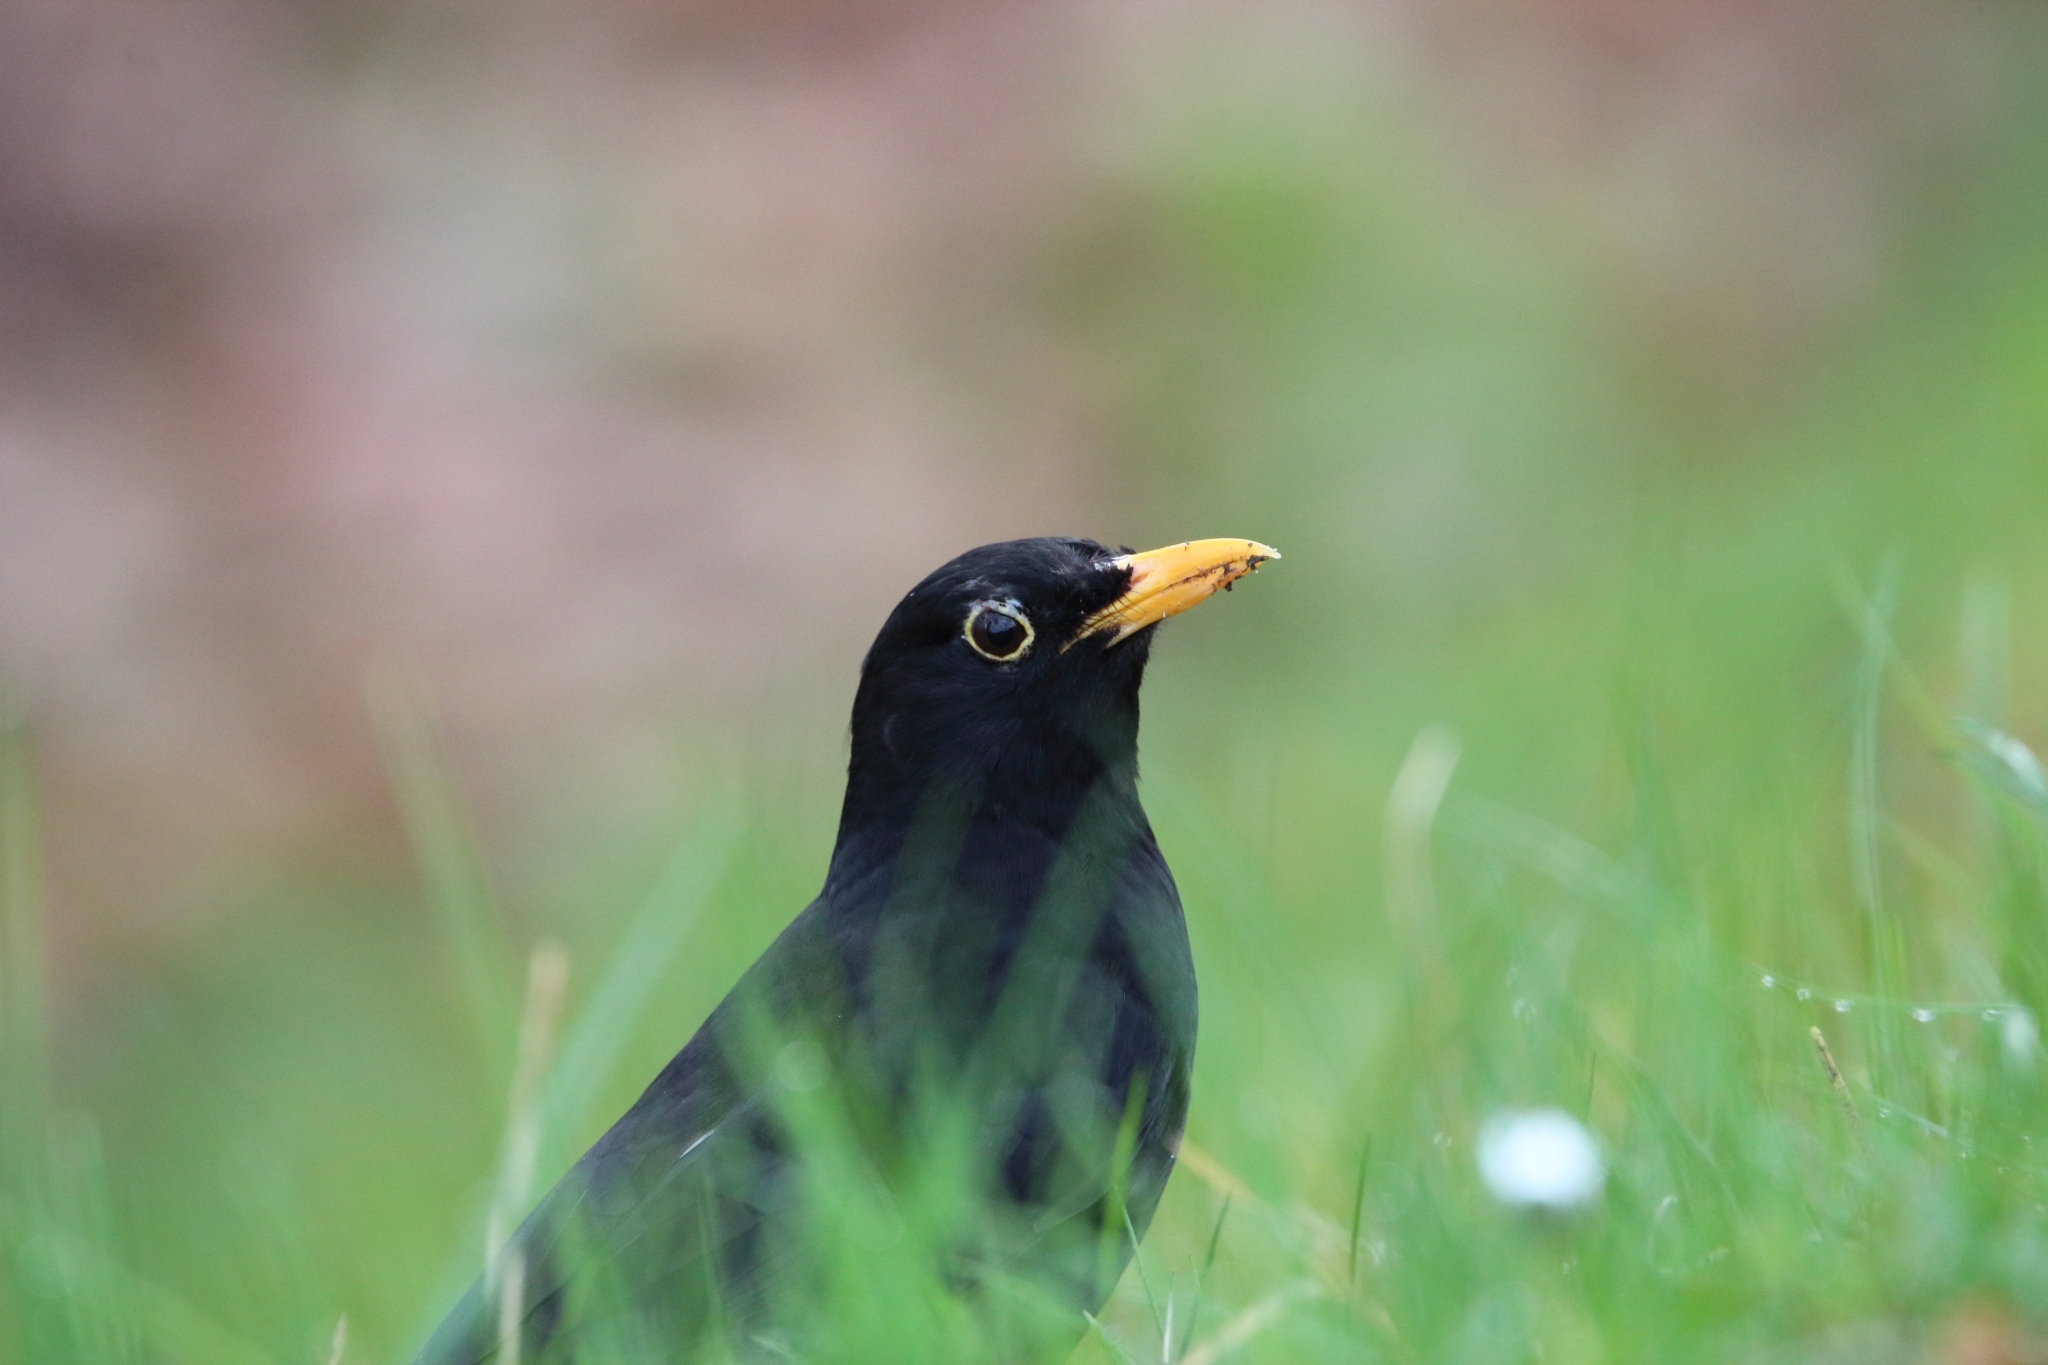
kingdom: Animalia
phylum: Chordata
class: Aves
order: Passeriformes
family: Turdidae
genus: Turdus
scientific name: Turdus merula
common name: Common blackbird
